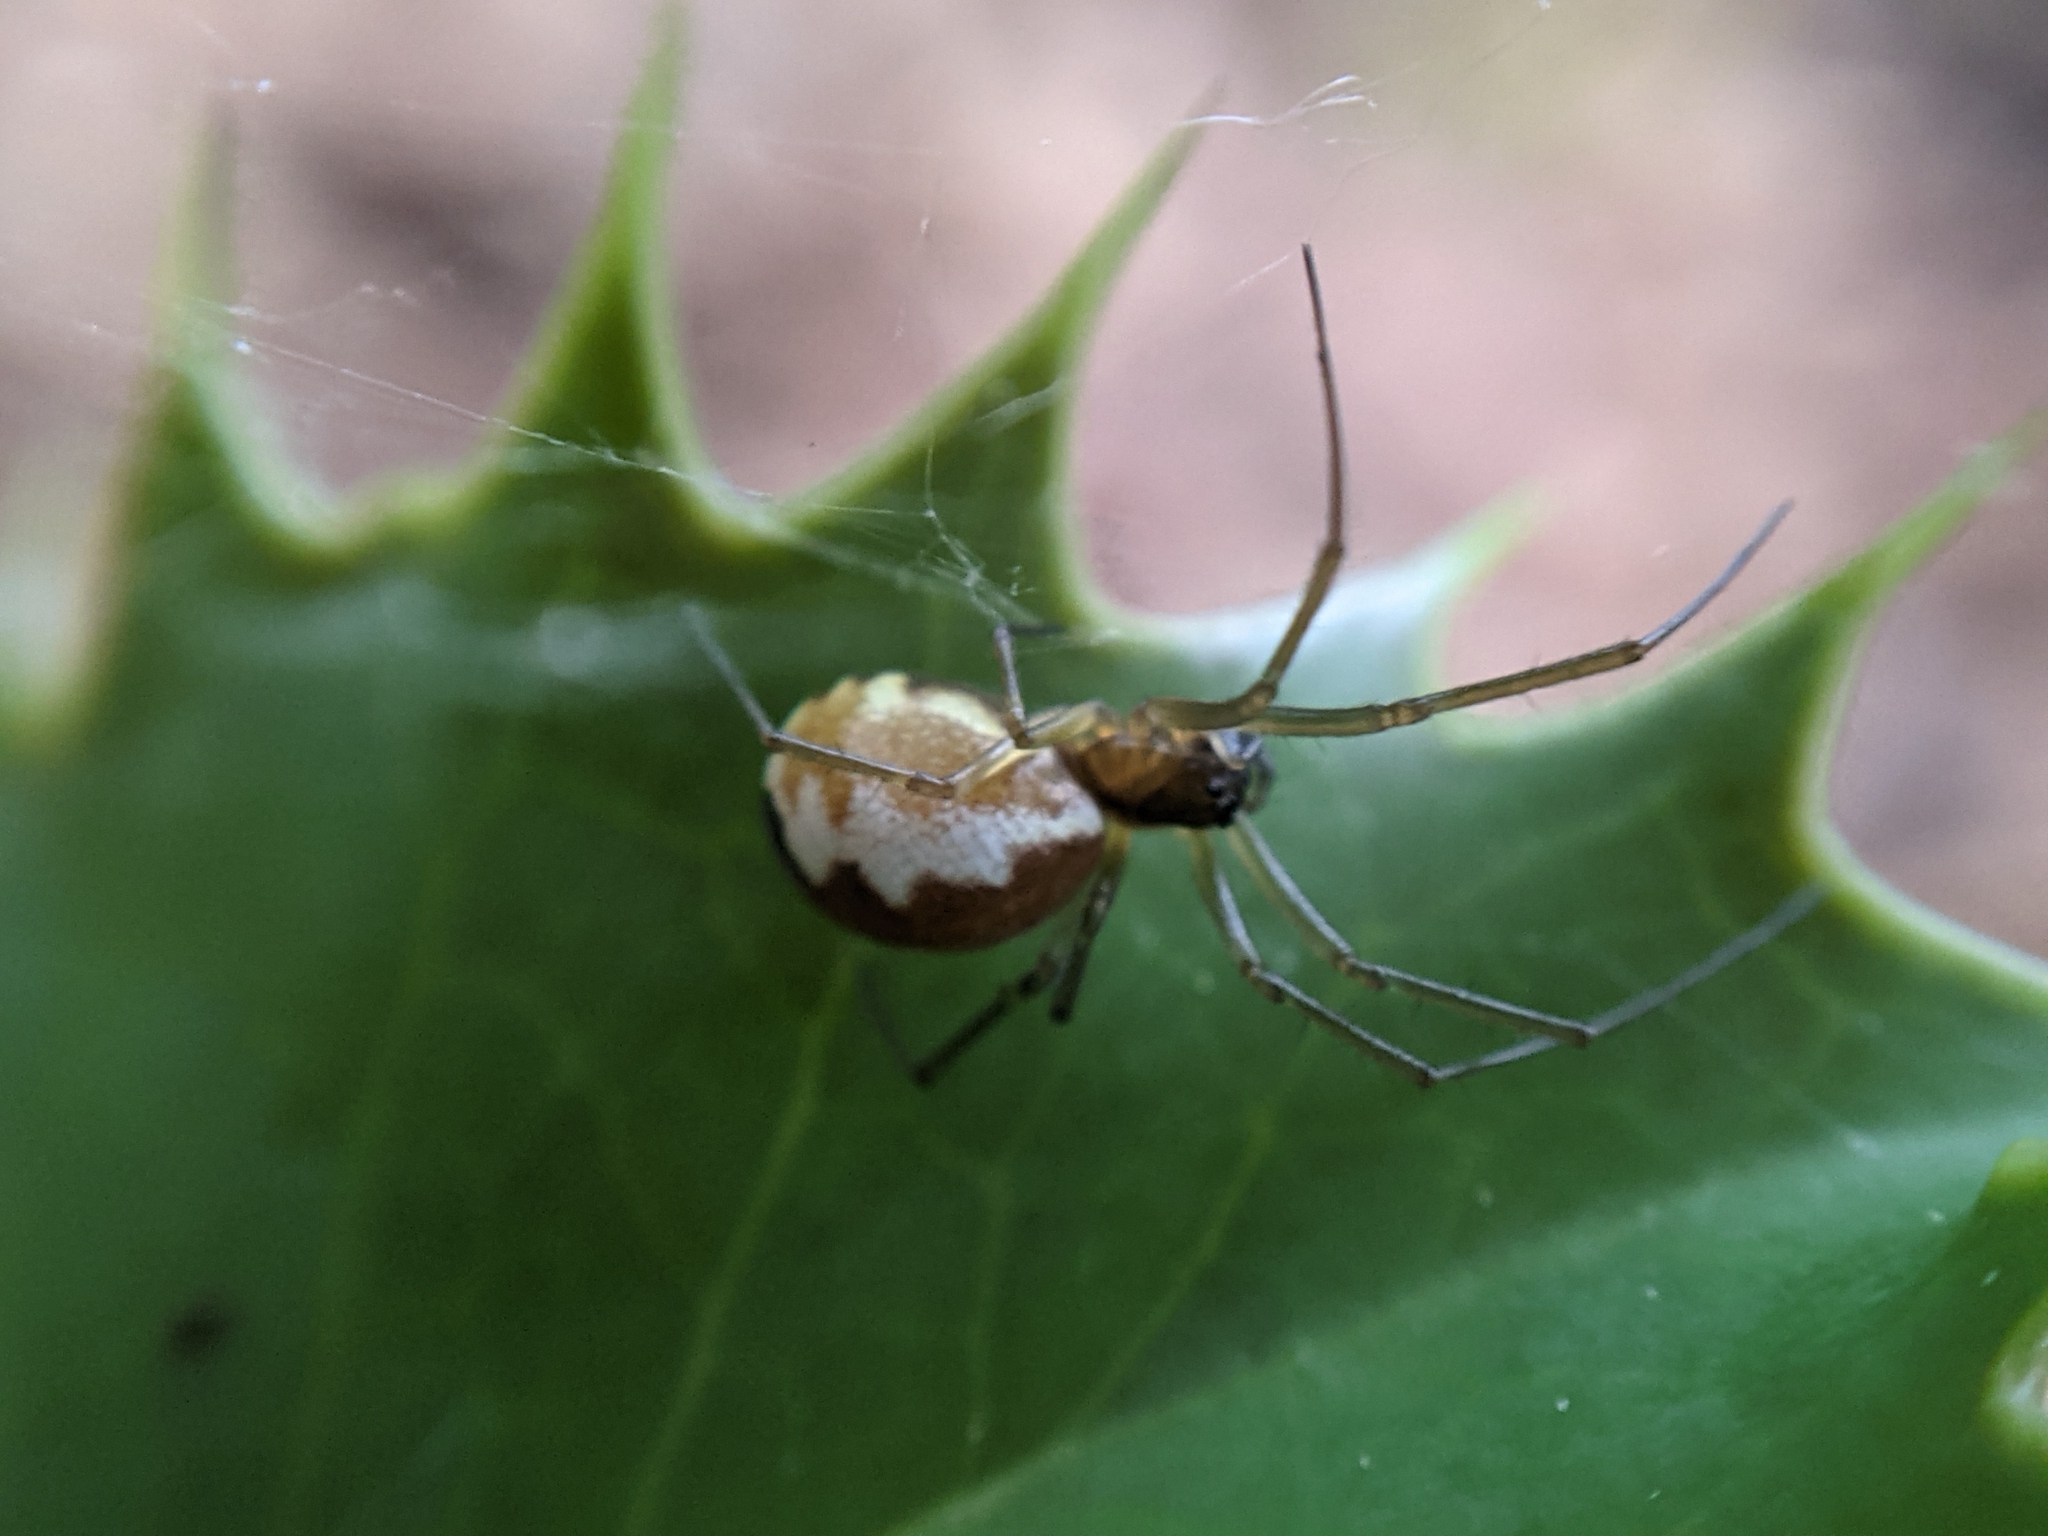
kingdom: Animalia
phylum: Arthropoda
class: Arachnida
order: Araneae
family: Linyphiidae
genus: Neriene
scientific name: Neriene peltata
